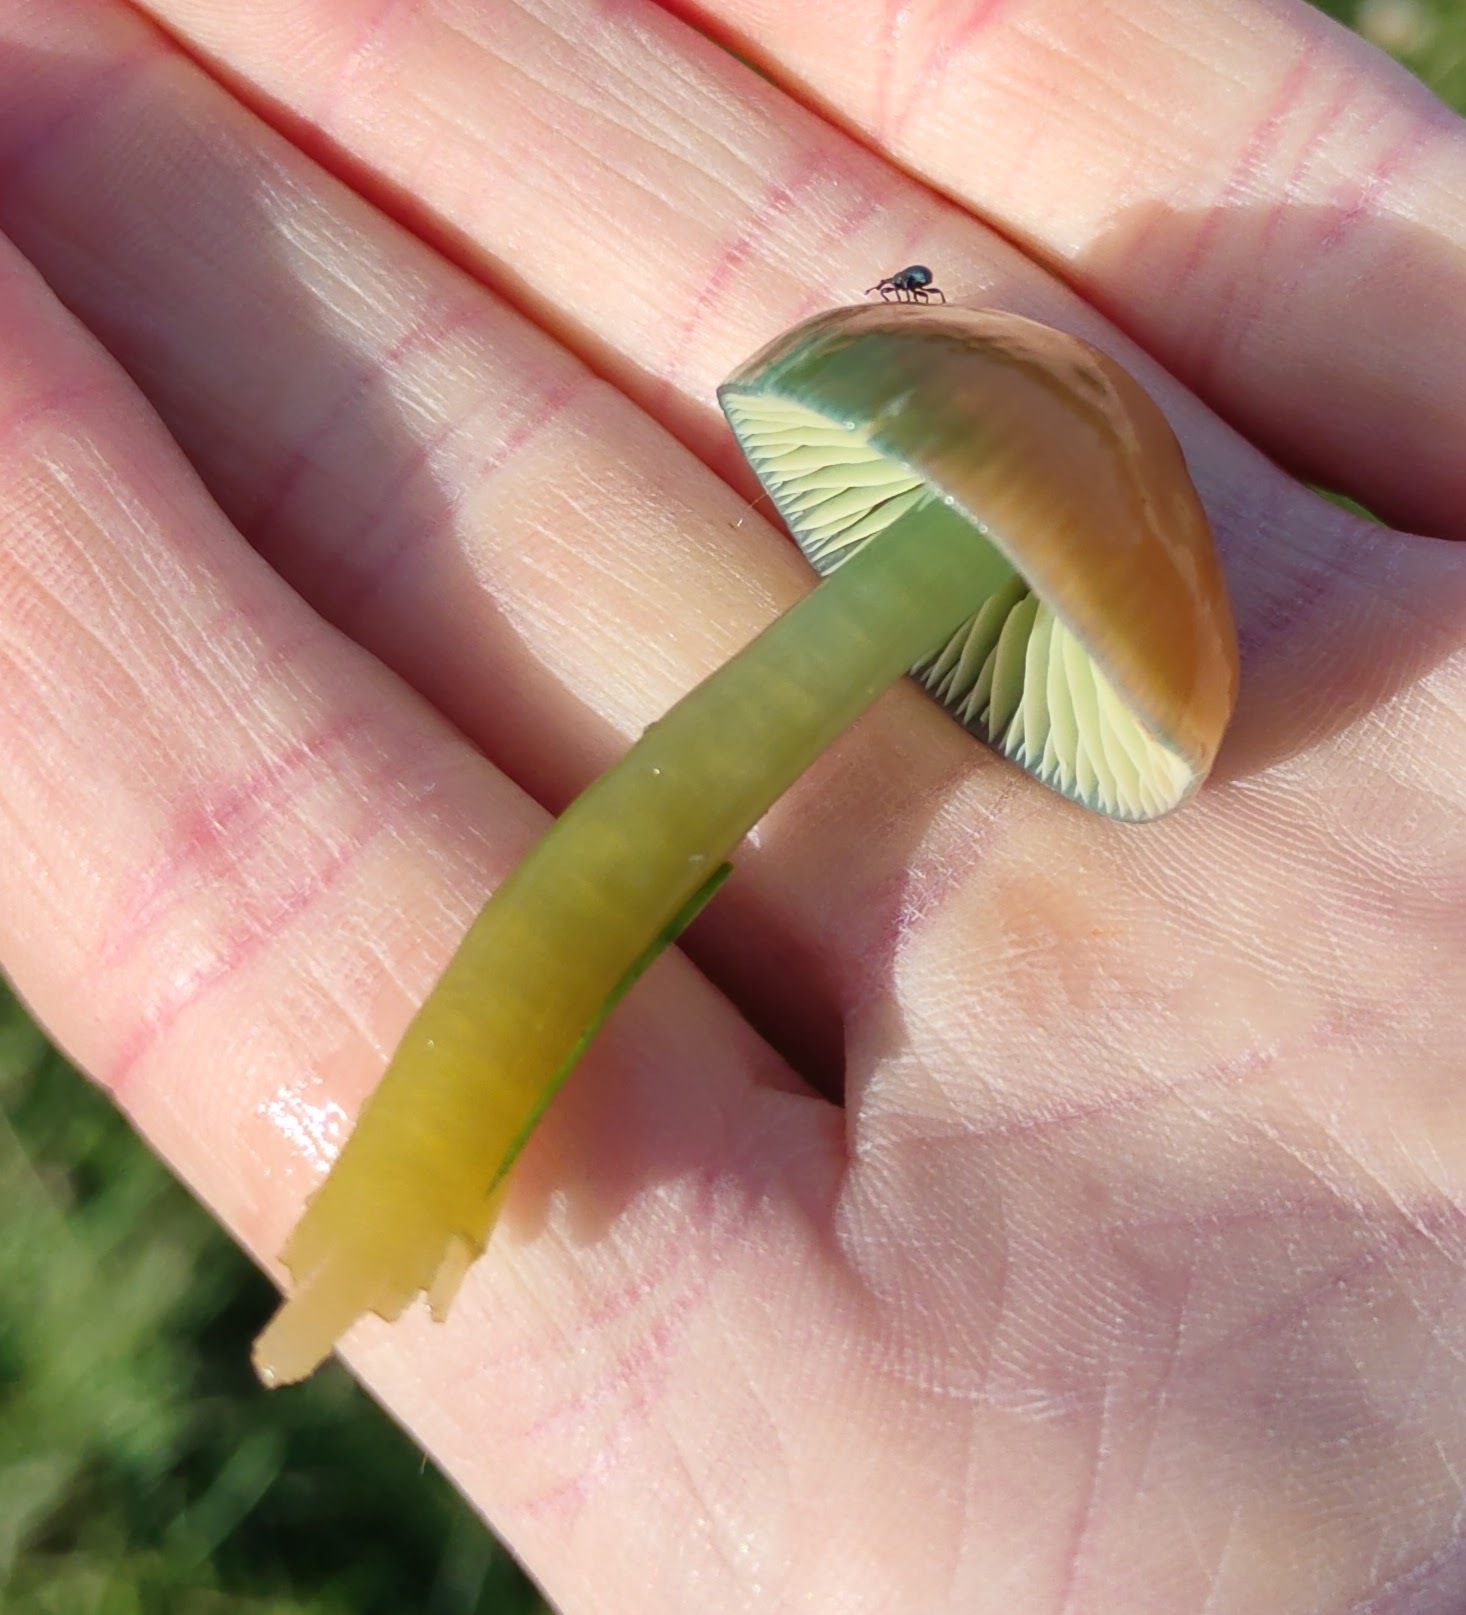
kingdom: Fungi
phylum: Basidiomycota
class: Agaricomycetes
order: Agaricales
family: Hygrophoraceae
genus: Gliophorus
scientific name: Gliophorus psittacinus
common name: Parrot wax-cap
